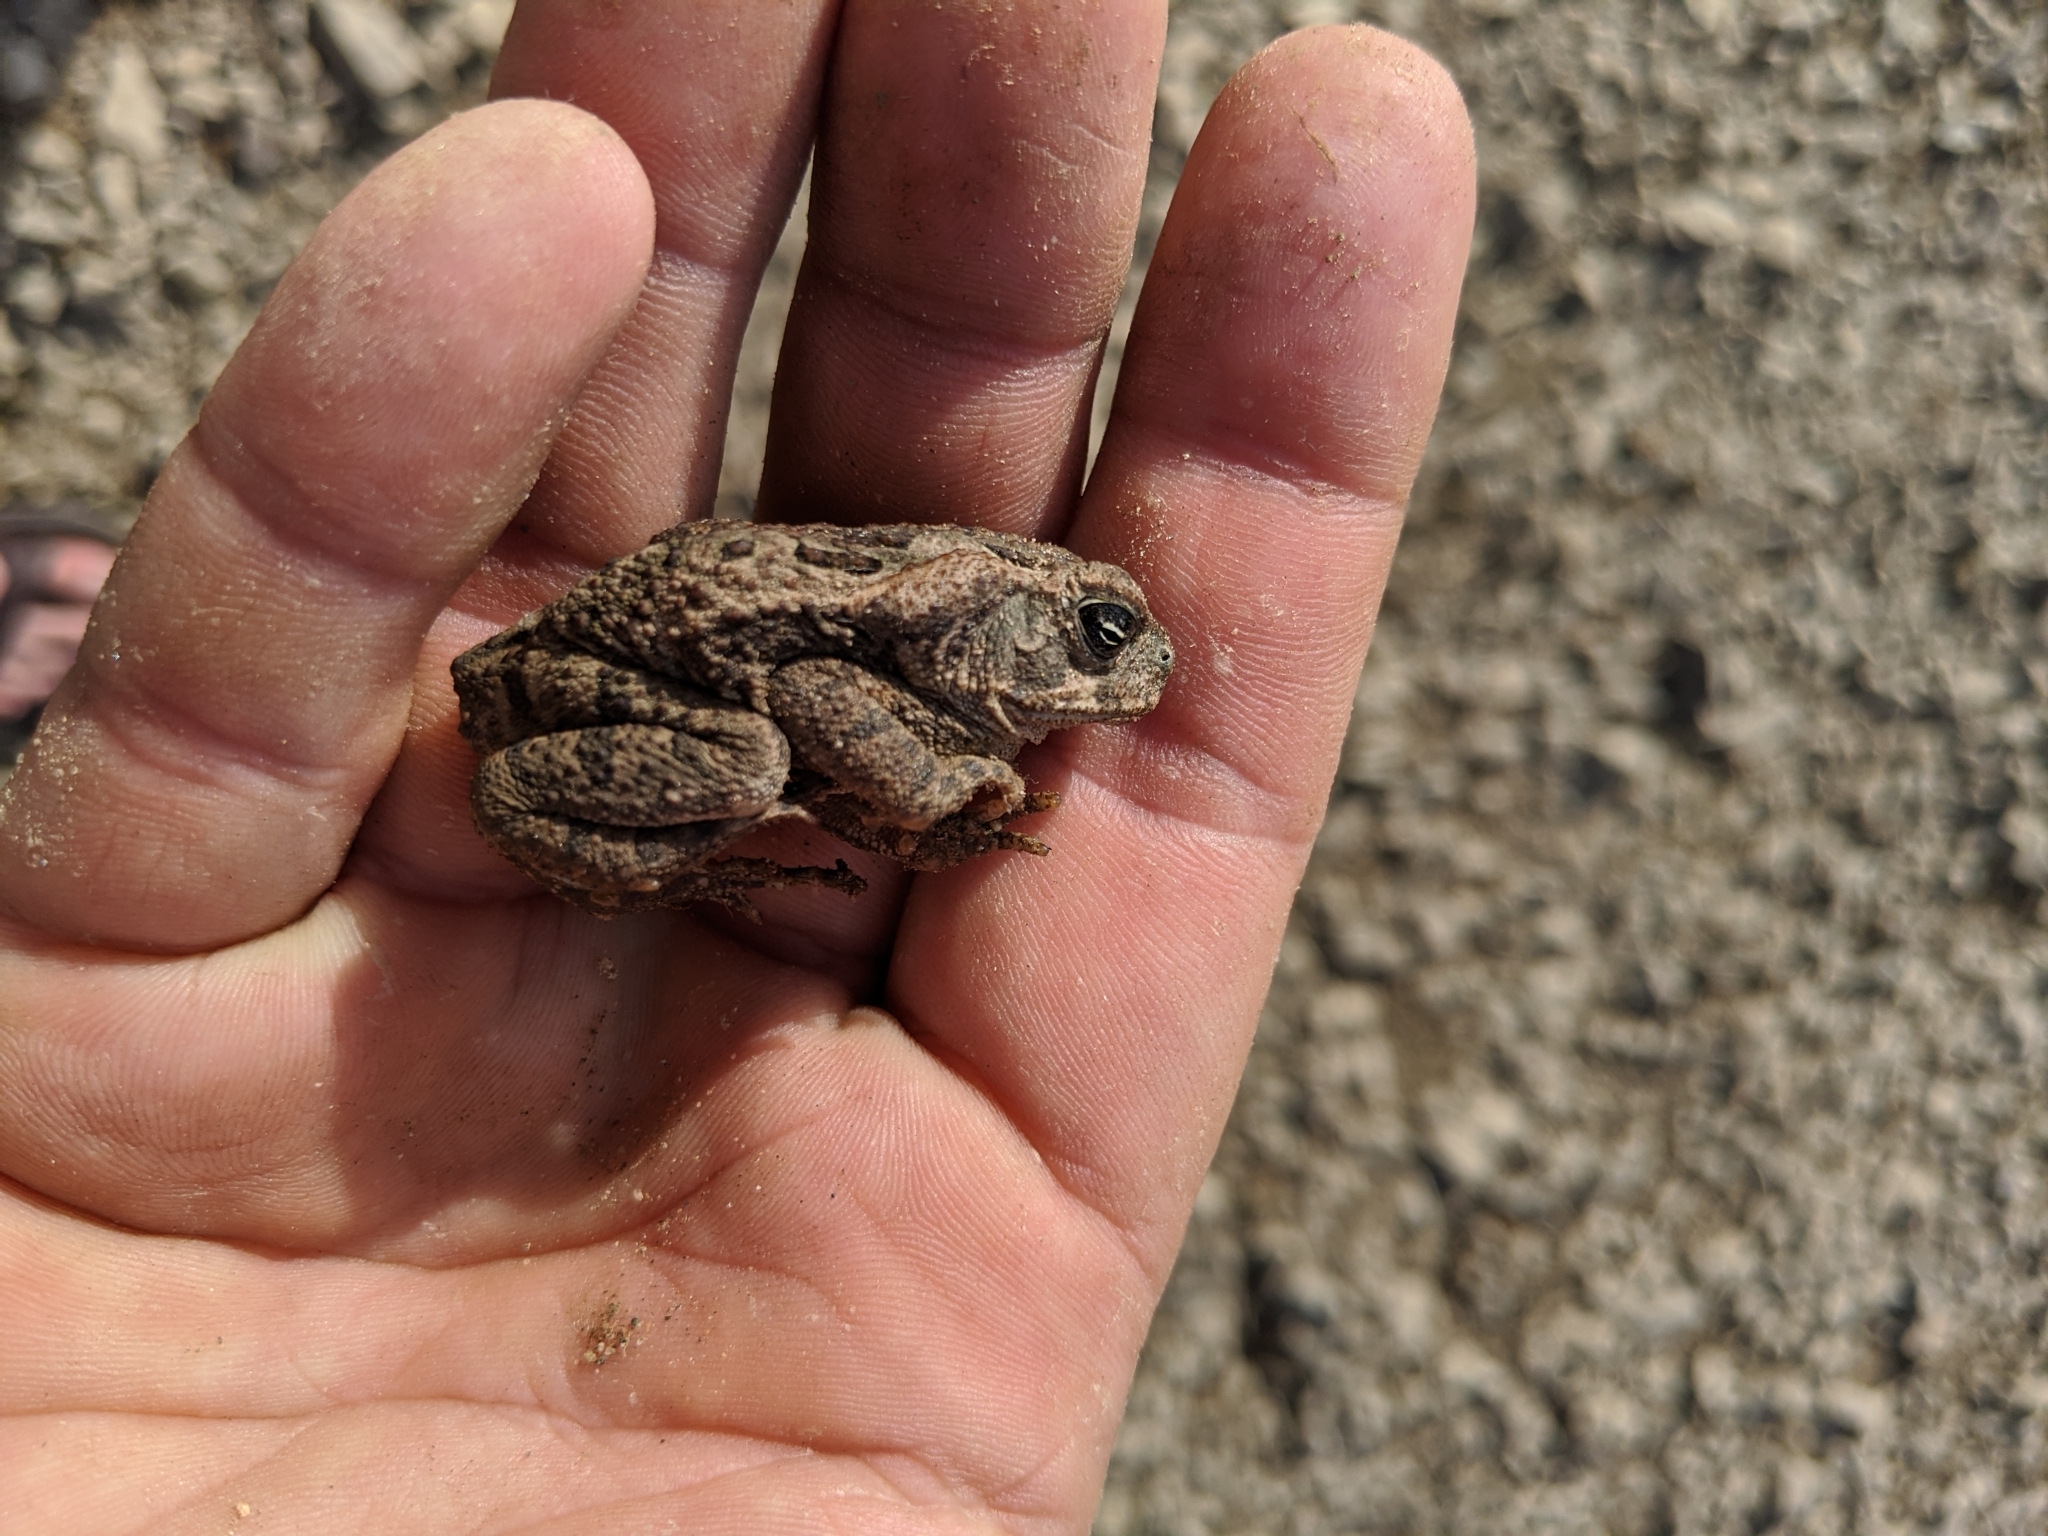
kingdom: Animalia
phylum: Chordata
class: Amphibia
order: Anura
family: Bufonidae
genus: Rhinella
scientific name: Rhinella horribilis
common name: Mesoamerican cane toad
